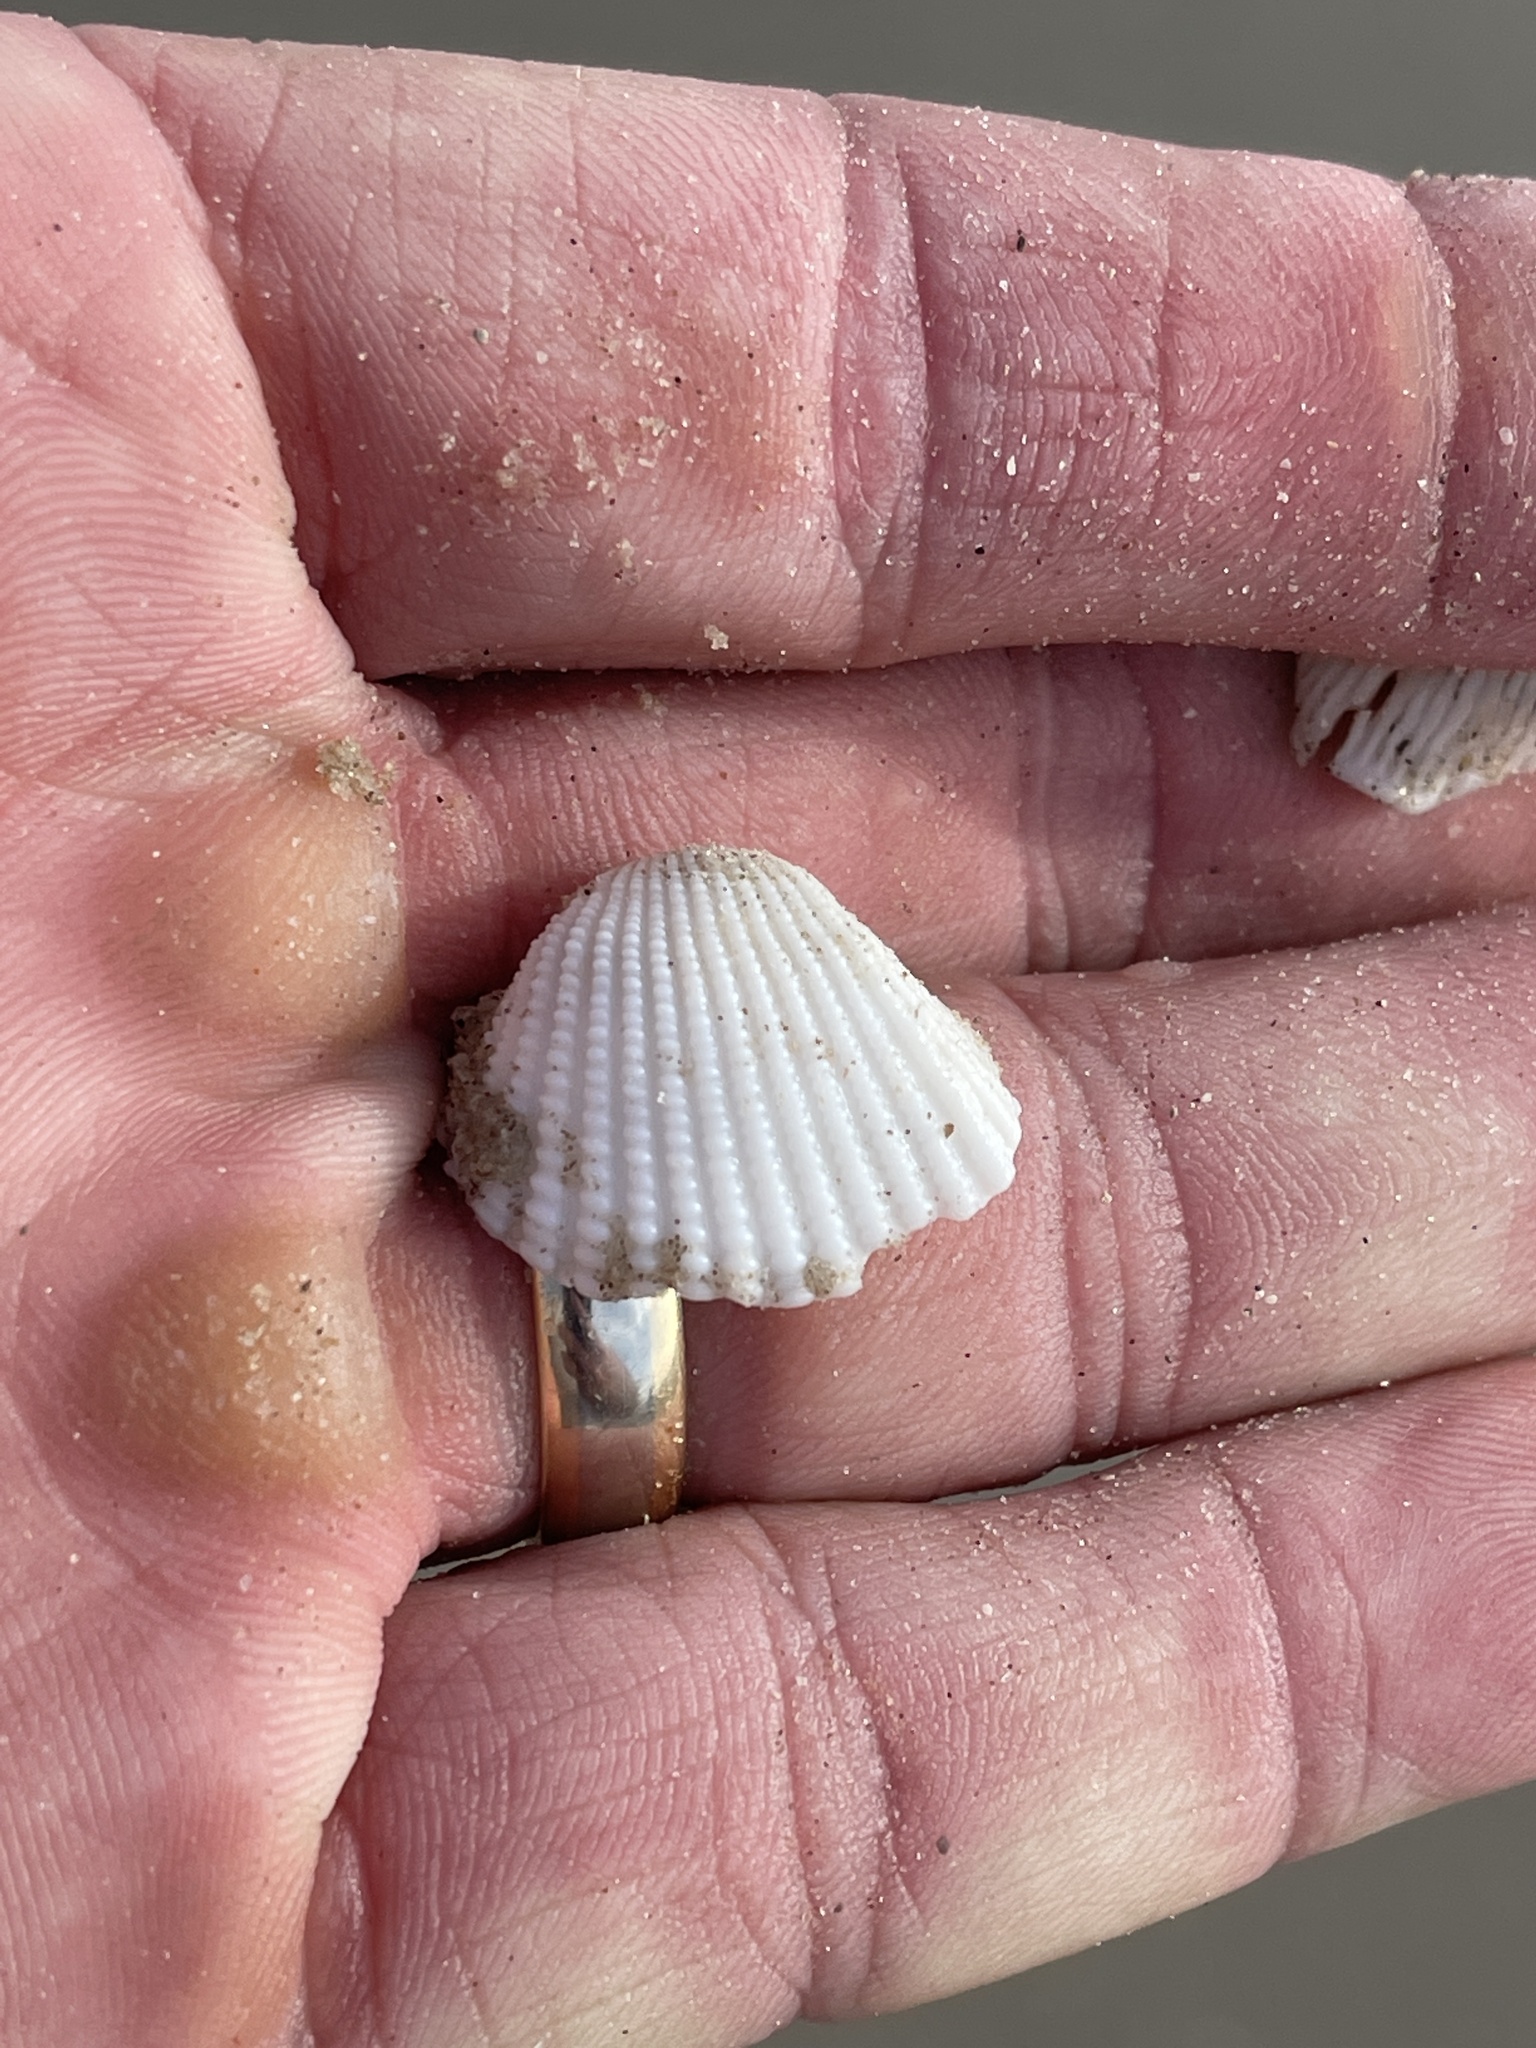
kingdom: Animalia
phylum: Mollusca
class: Bivalvia
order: Arcida
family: Arcidae
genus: Anadara
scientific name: Anadara brasiliana
